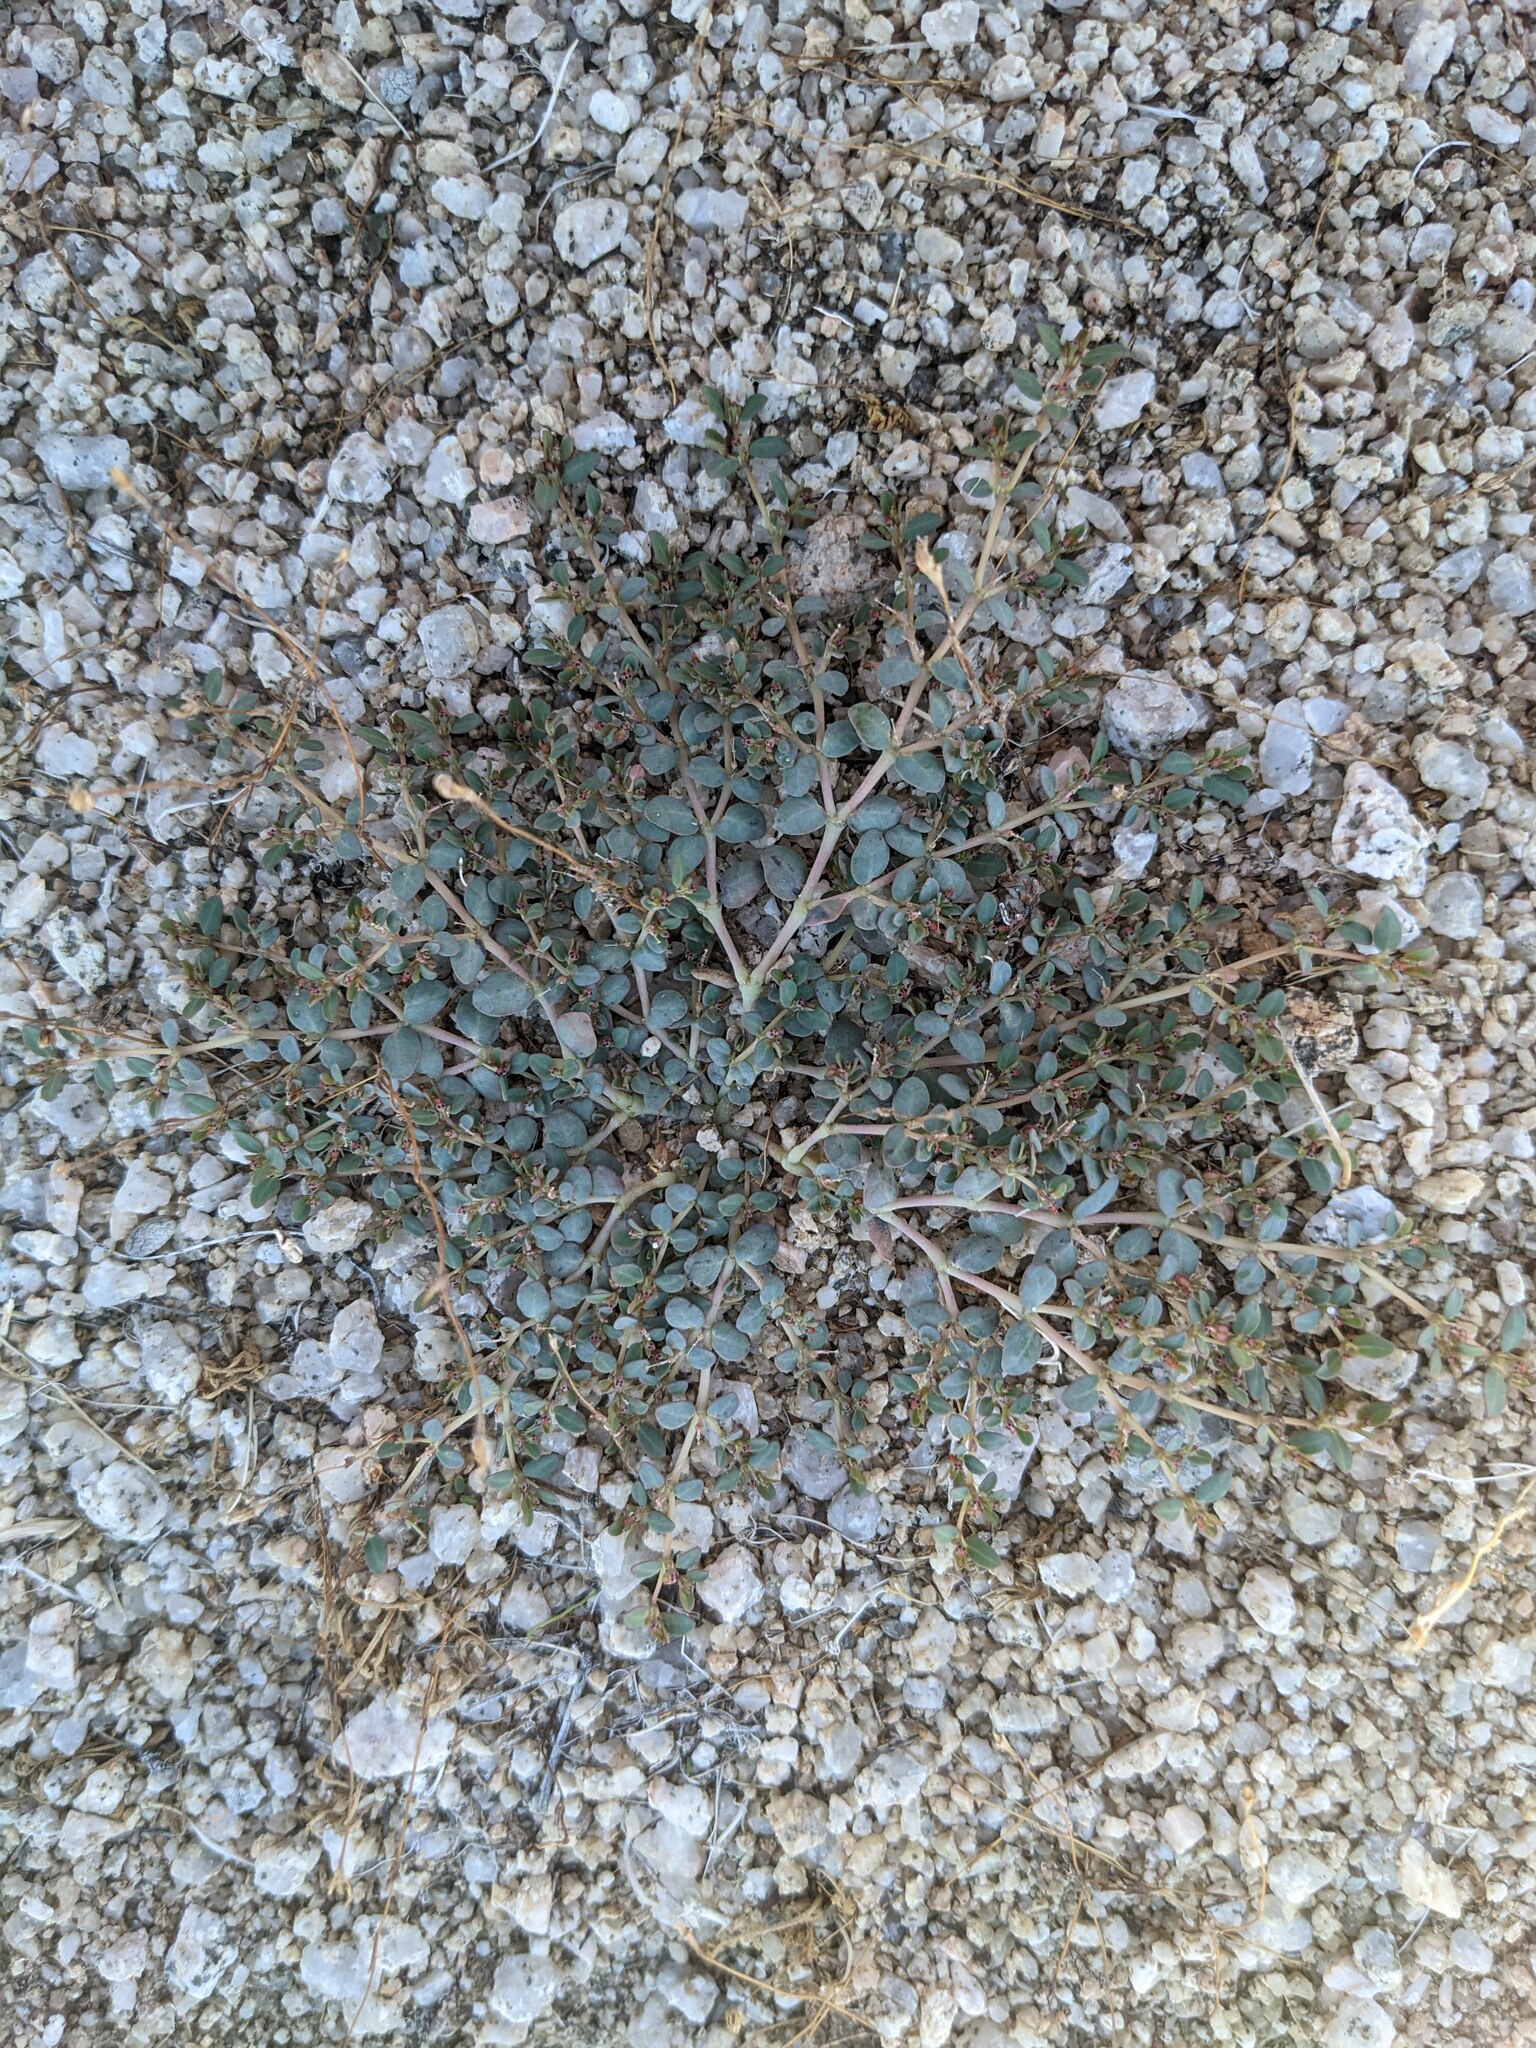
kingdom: Plantae
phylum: Tracheophyta
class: Magnoliopsida
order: Malpighiales
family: Euphorbiaceae
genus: Euphorbia
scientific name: Euphorbia micromera
